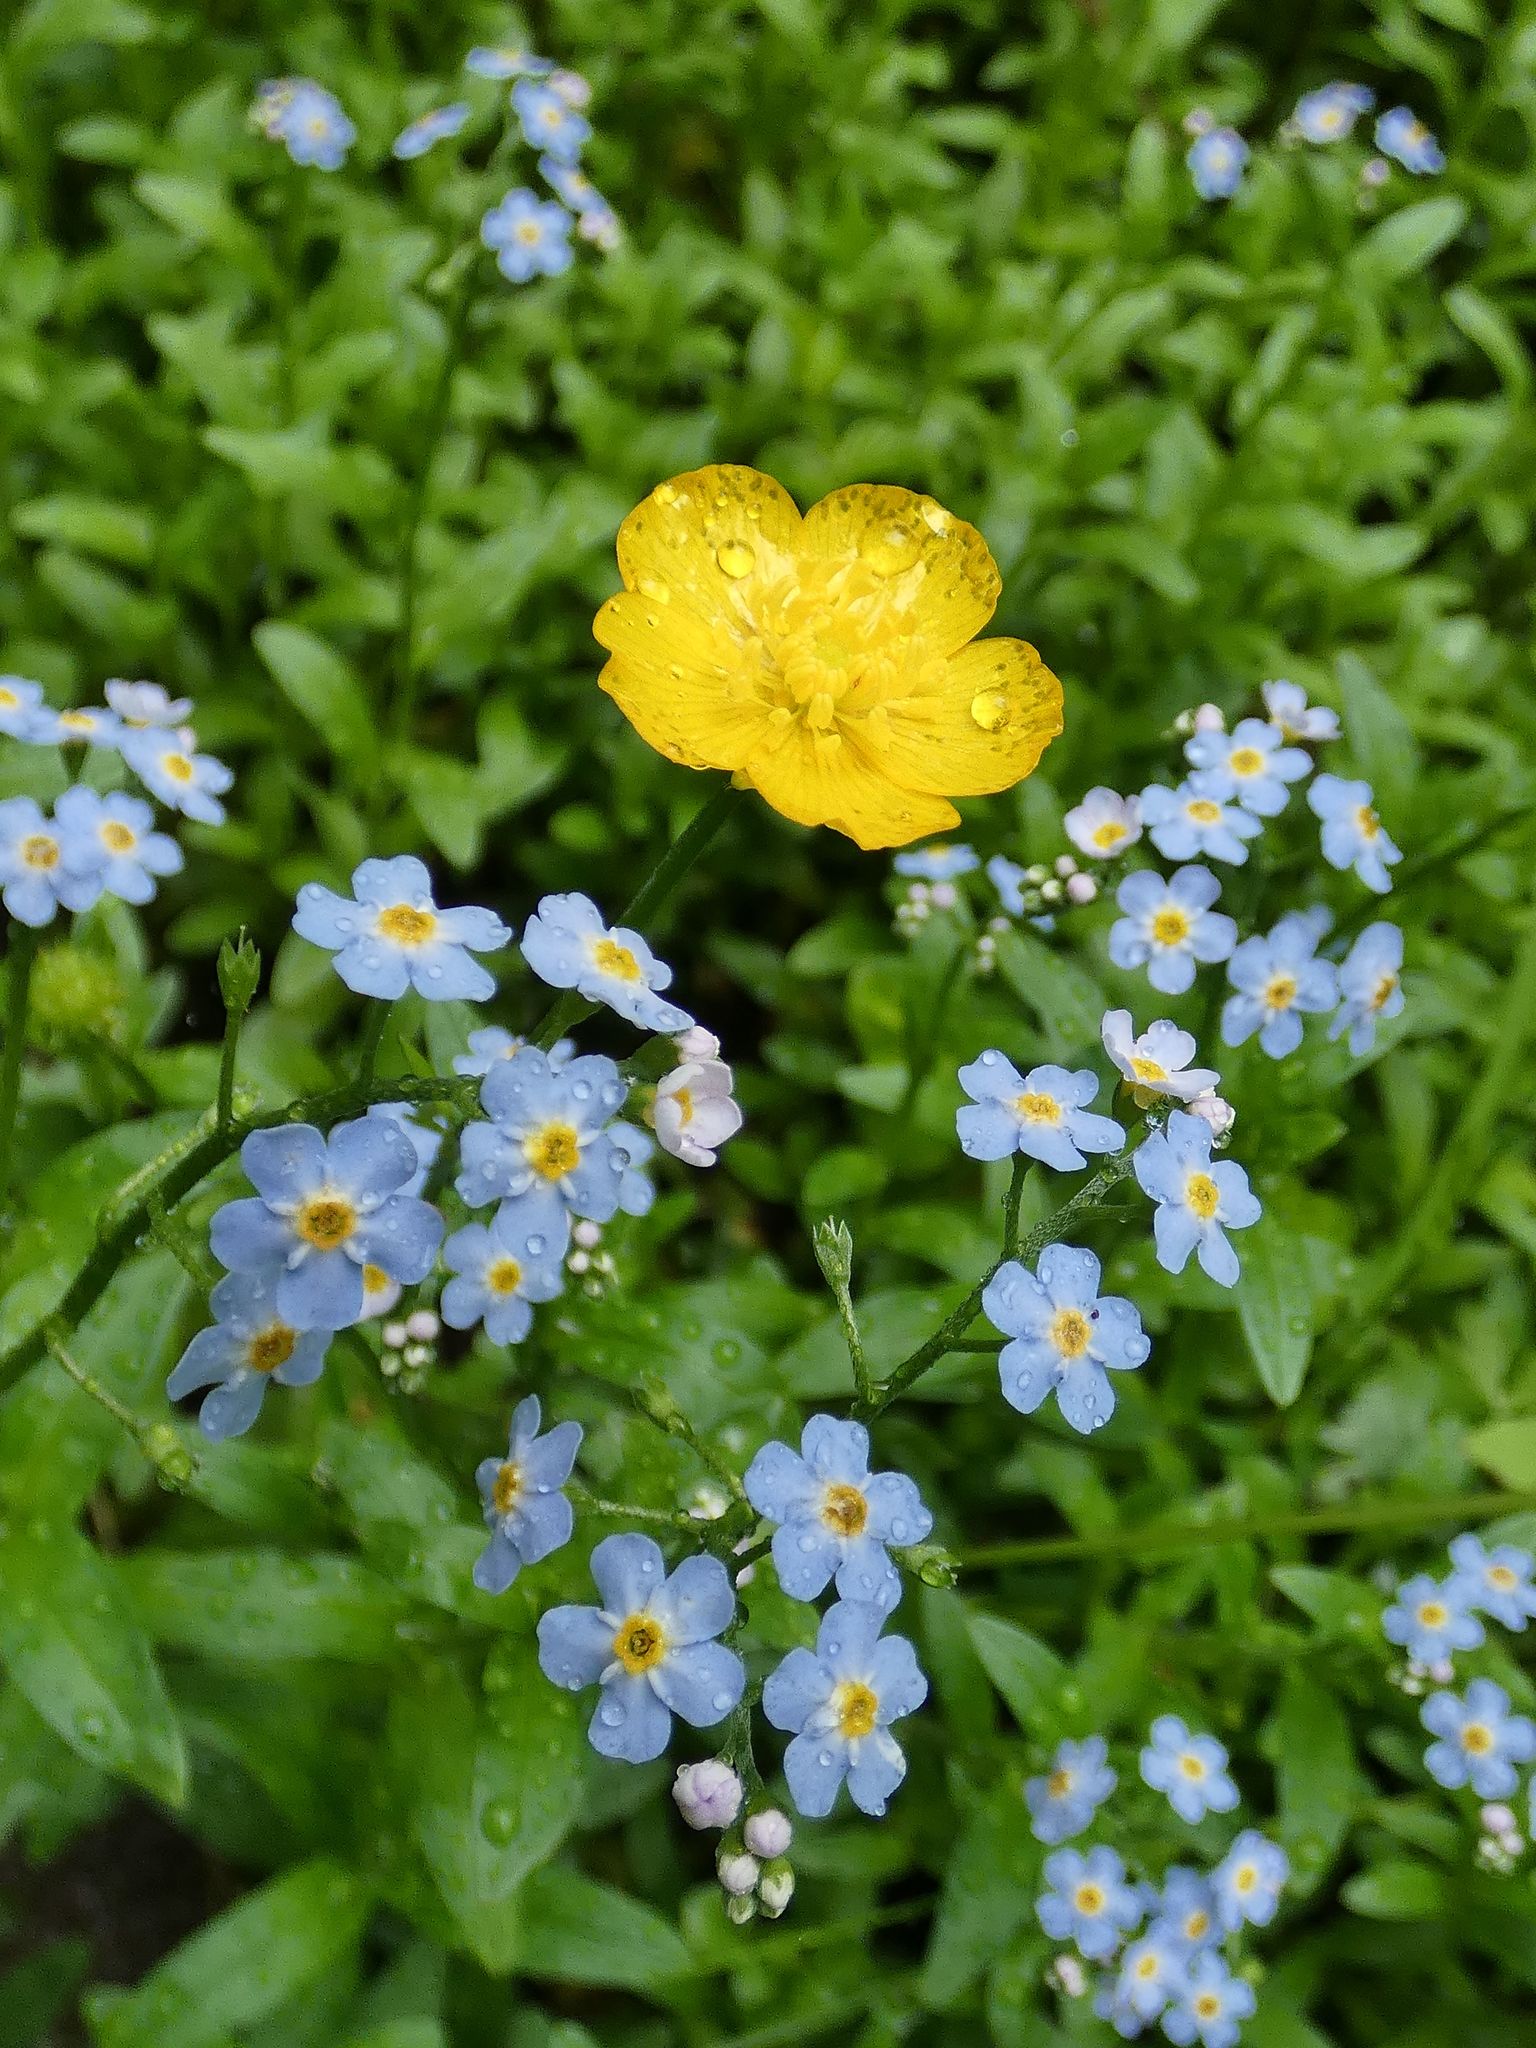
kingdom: Plantae
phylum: Tracheophyta
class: Magnoliopsida
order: Boraginales
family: Boraginaceae
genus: Myosotis
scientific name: Myosotis scorpioides
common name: Water forget-me-not
